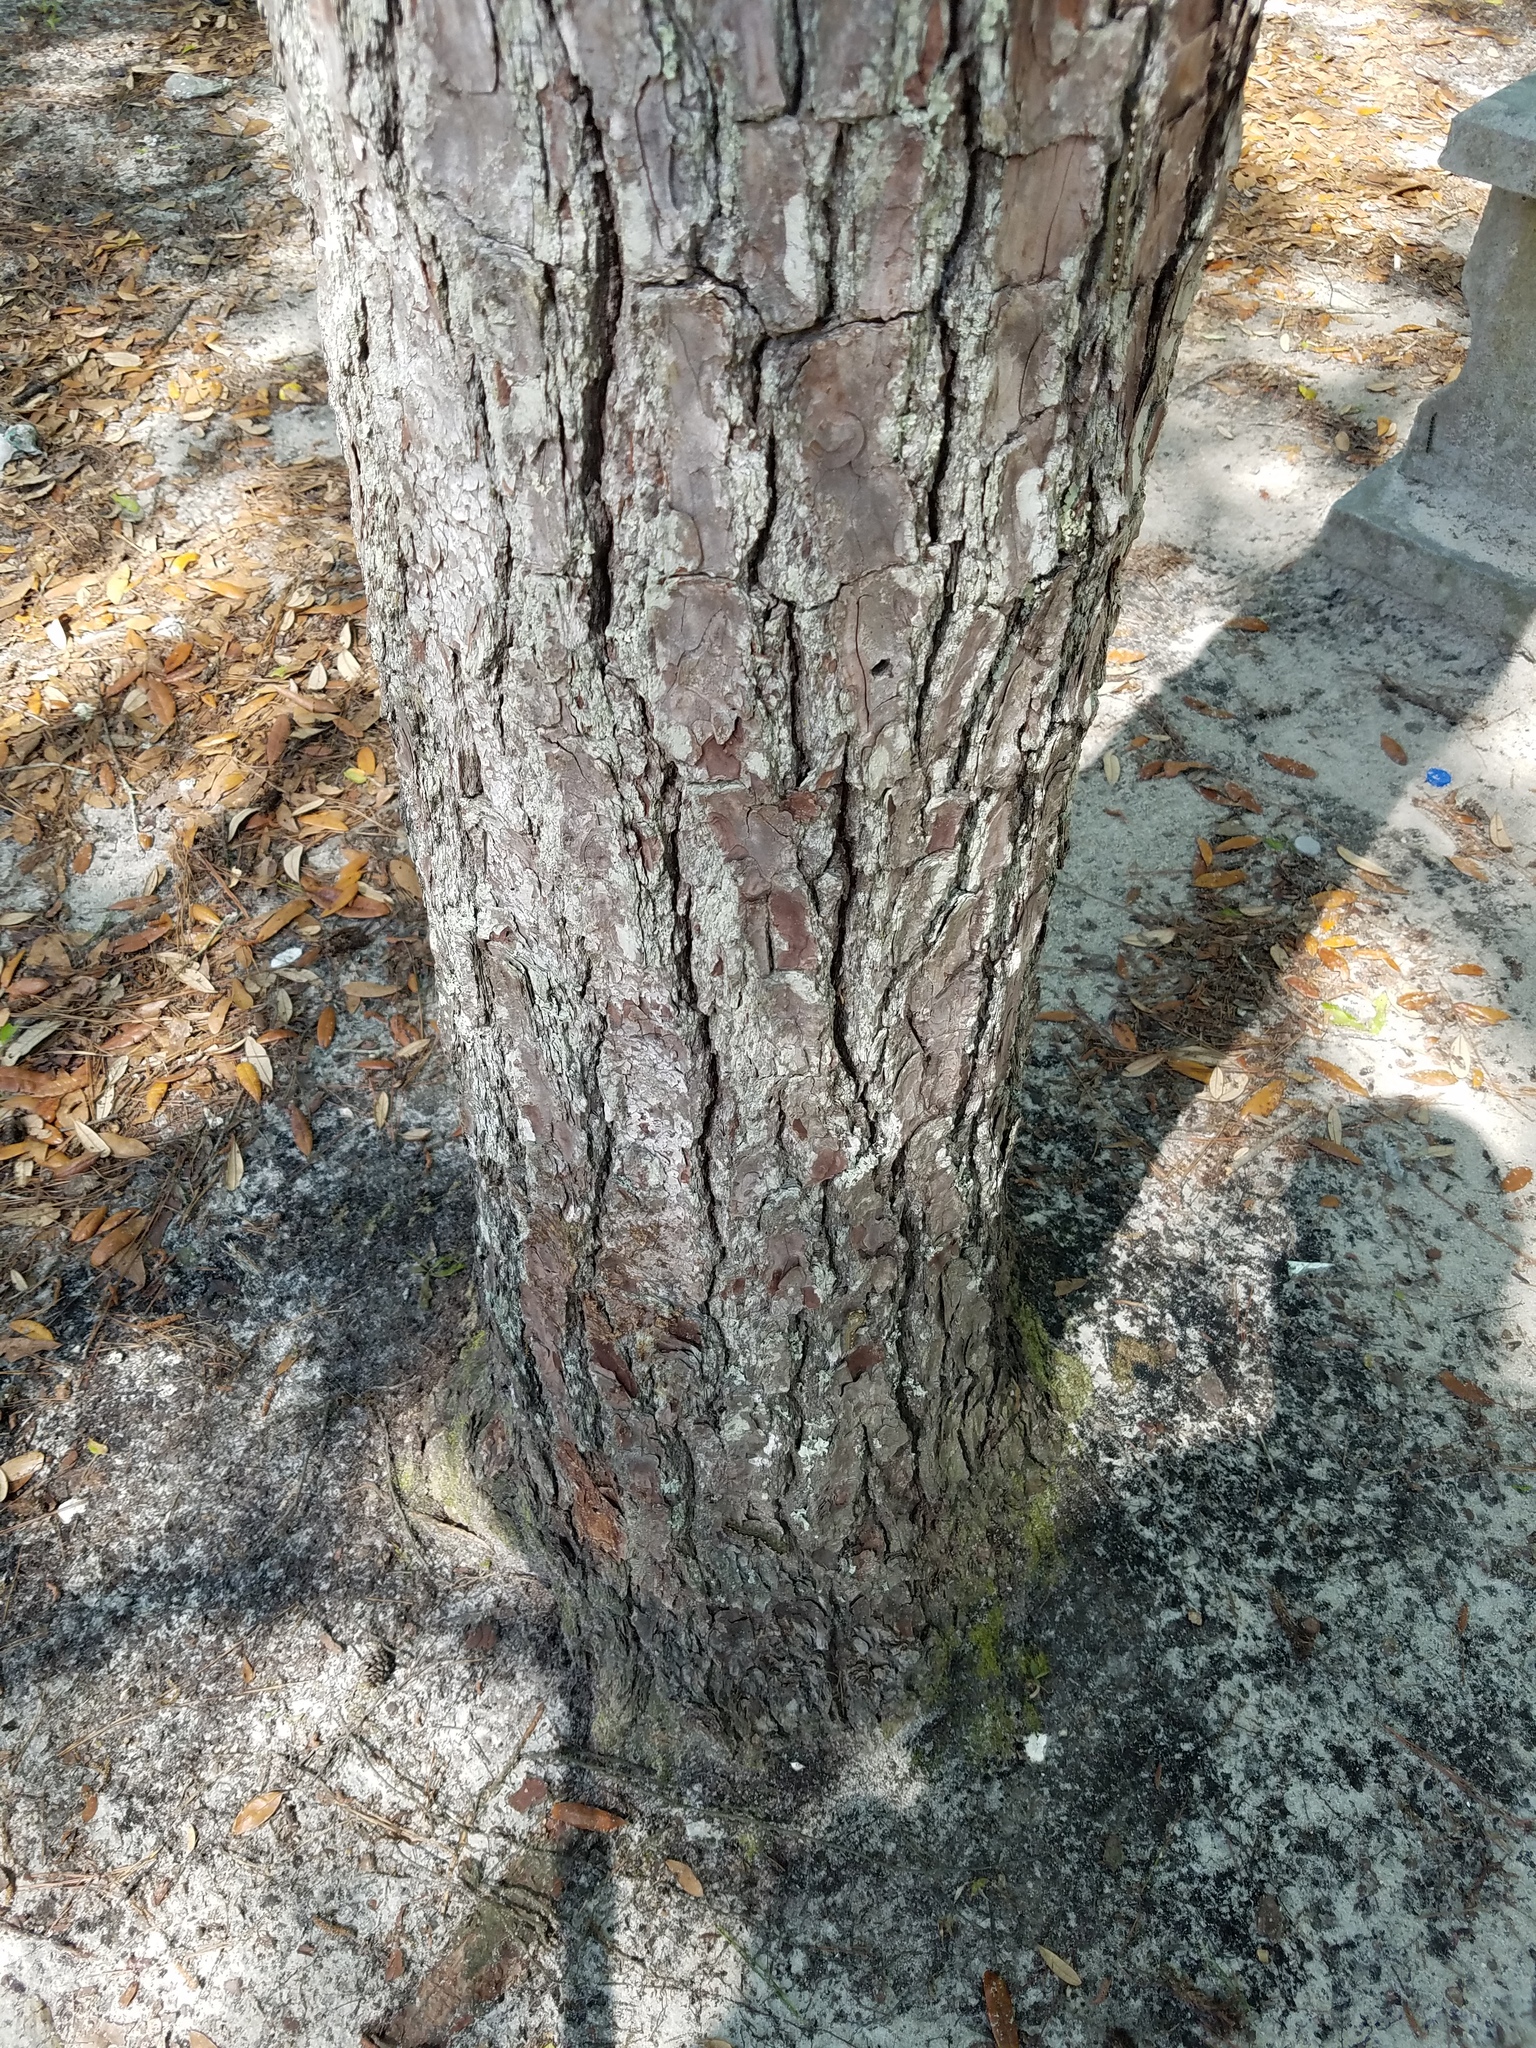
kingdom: Plantae
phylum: Tracheophyta
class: Pinopsida
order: Pinales
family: Pinaceae
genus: Pinus
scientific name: Pinus glabra
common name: Spruce pine
